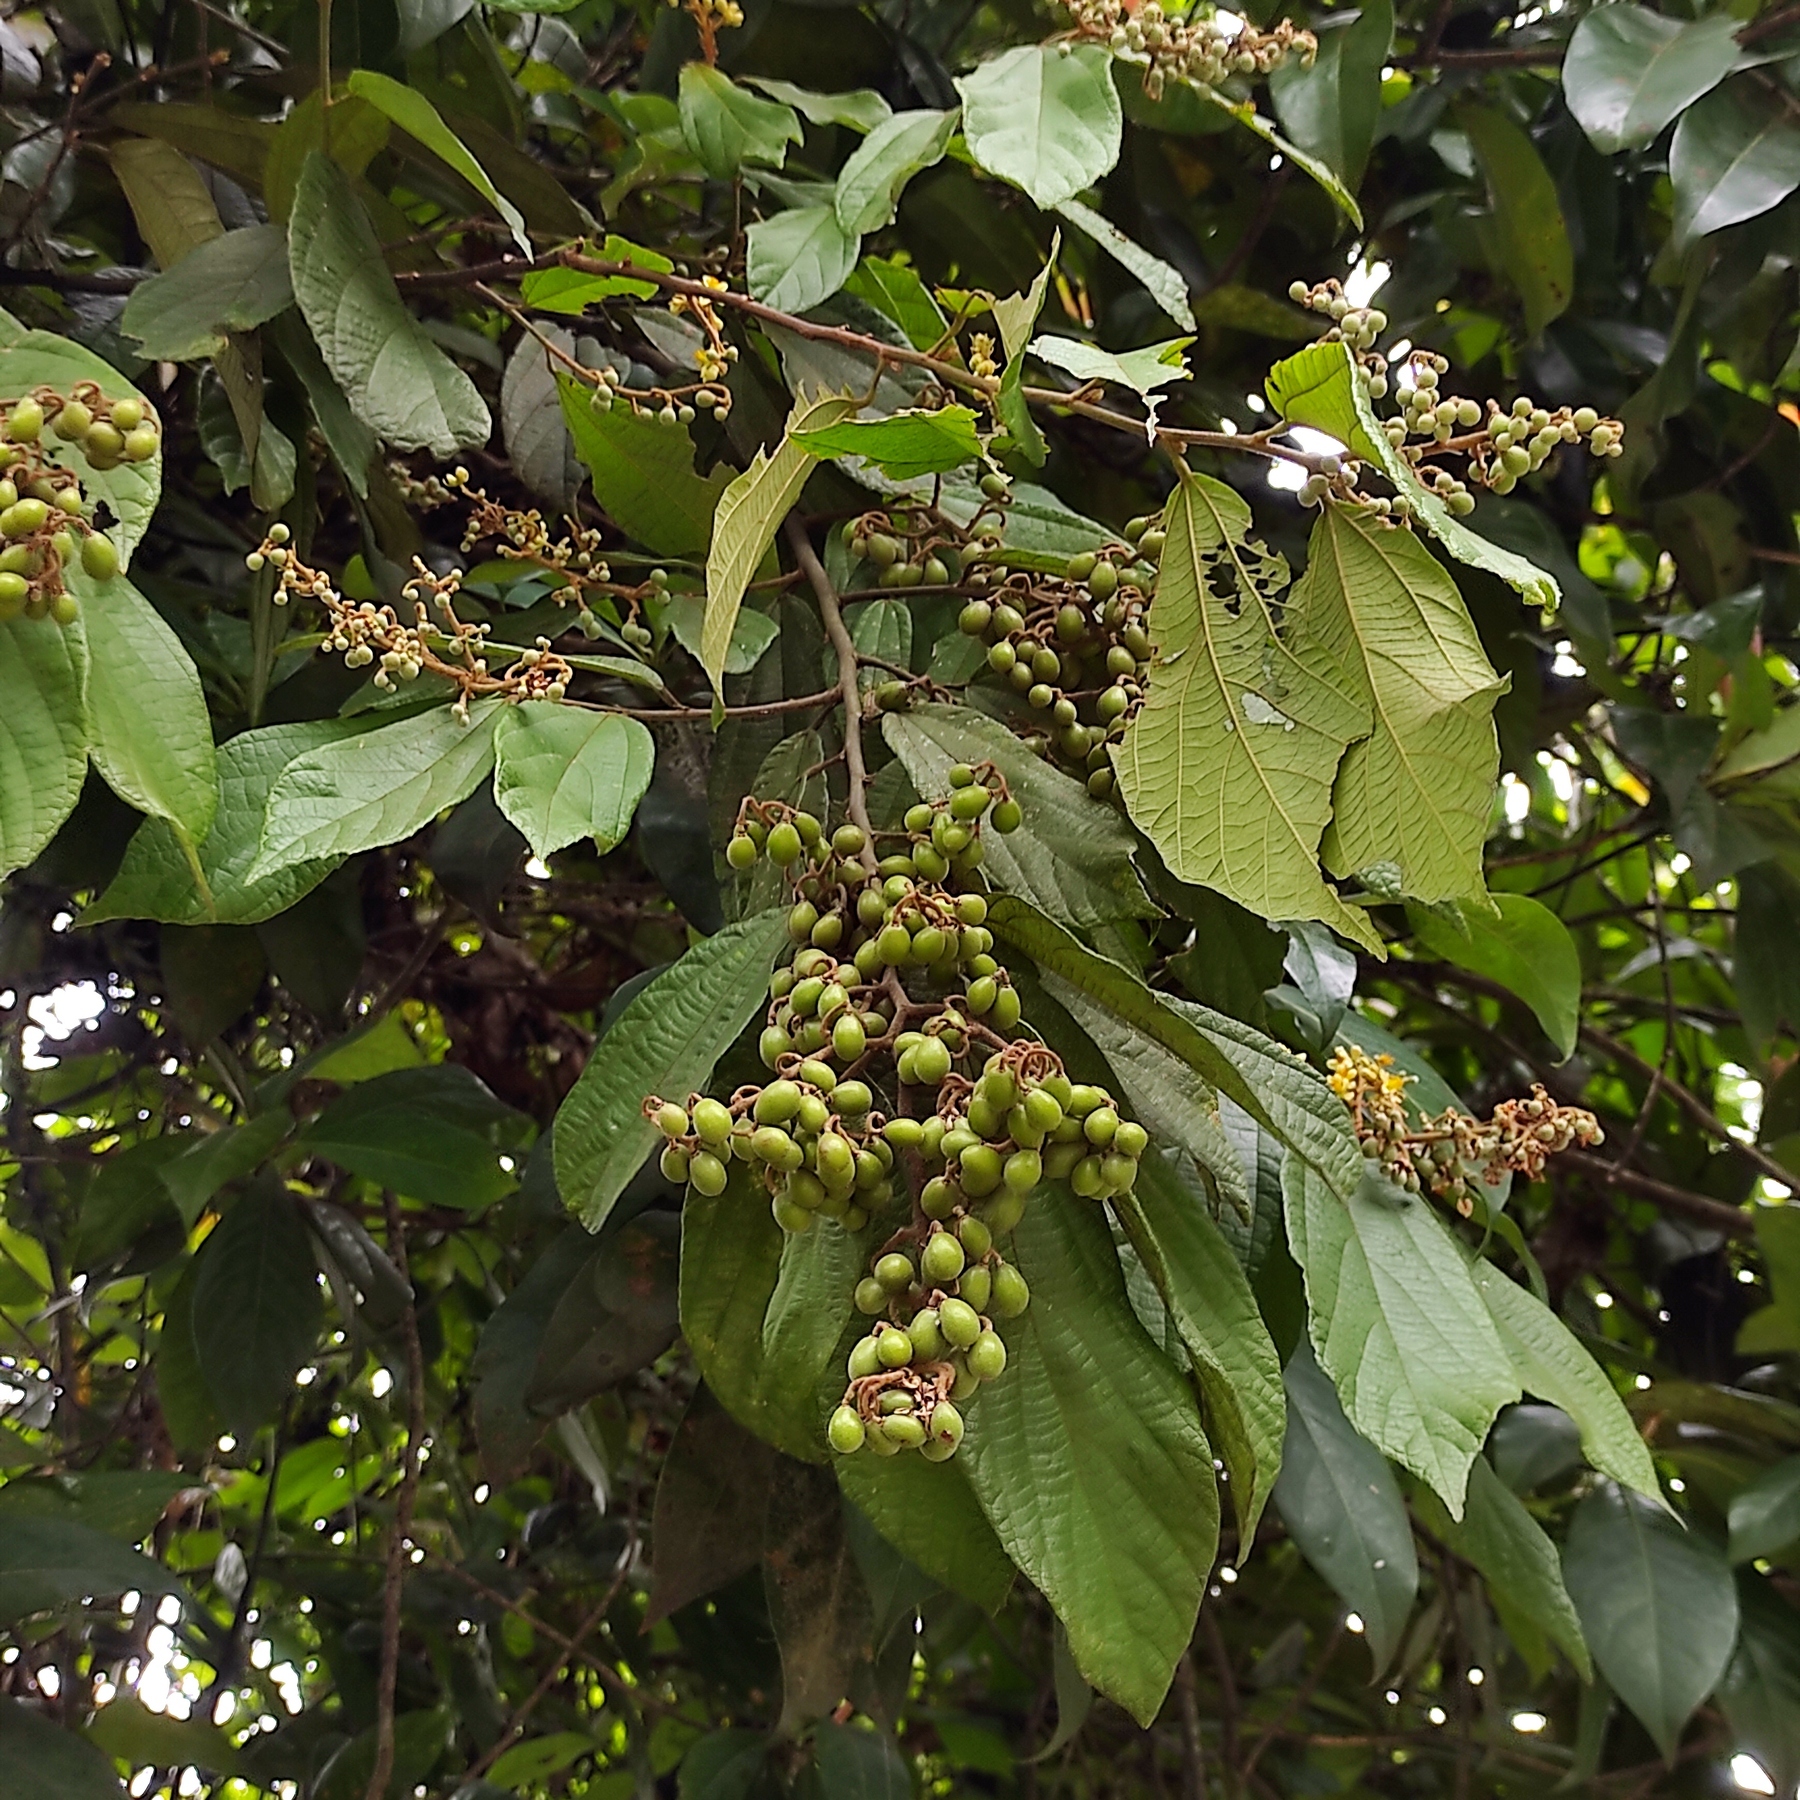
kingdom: Plantae
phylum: Tracheophyta
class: Magnoliopsida
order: Malvales
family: Malvaceae
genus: Microcos
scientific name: Microcos tomentosa
